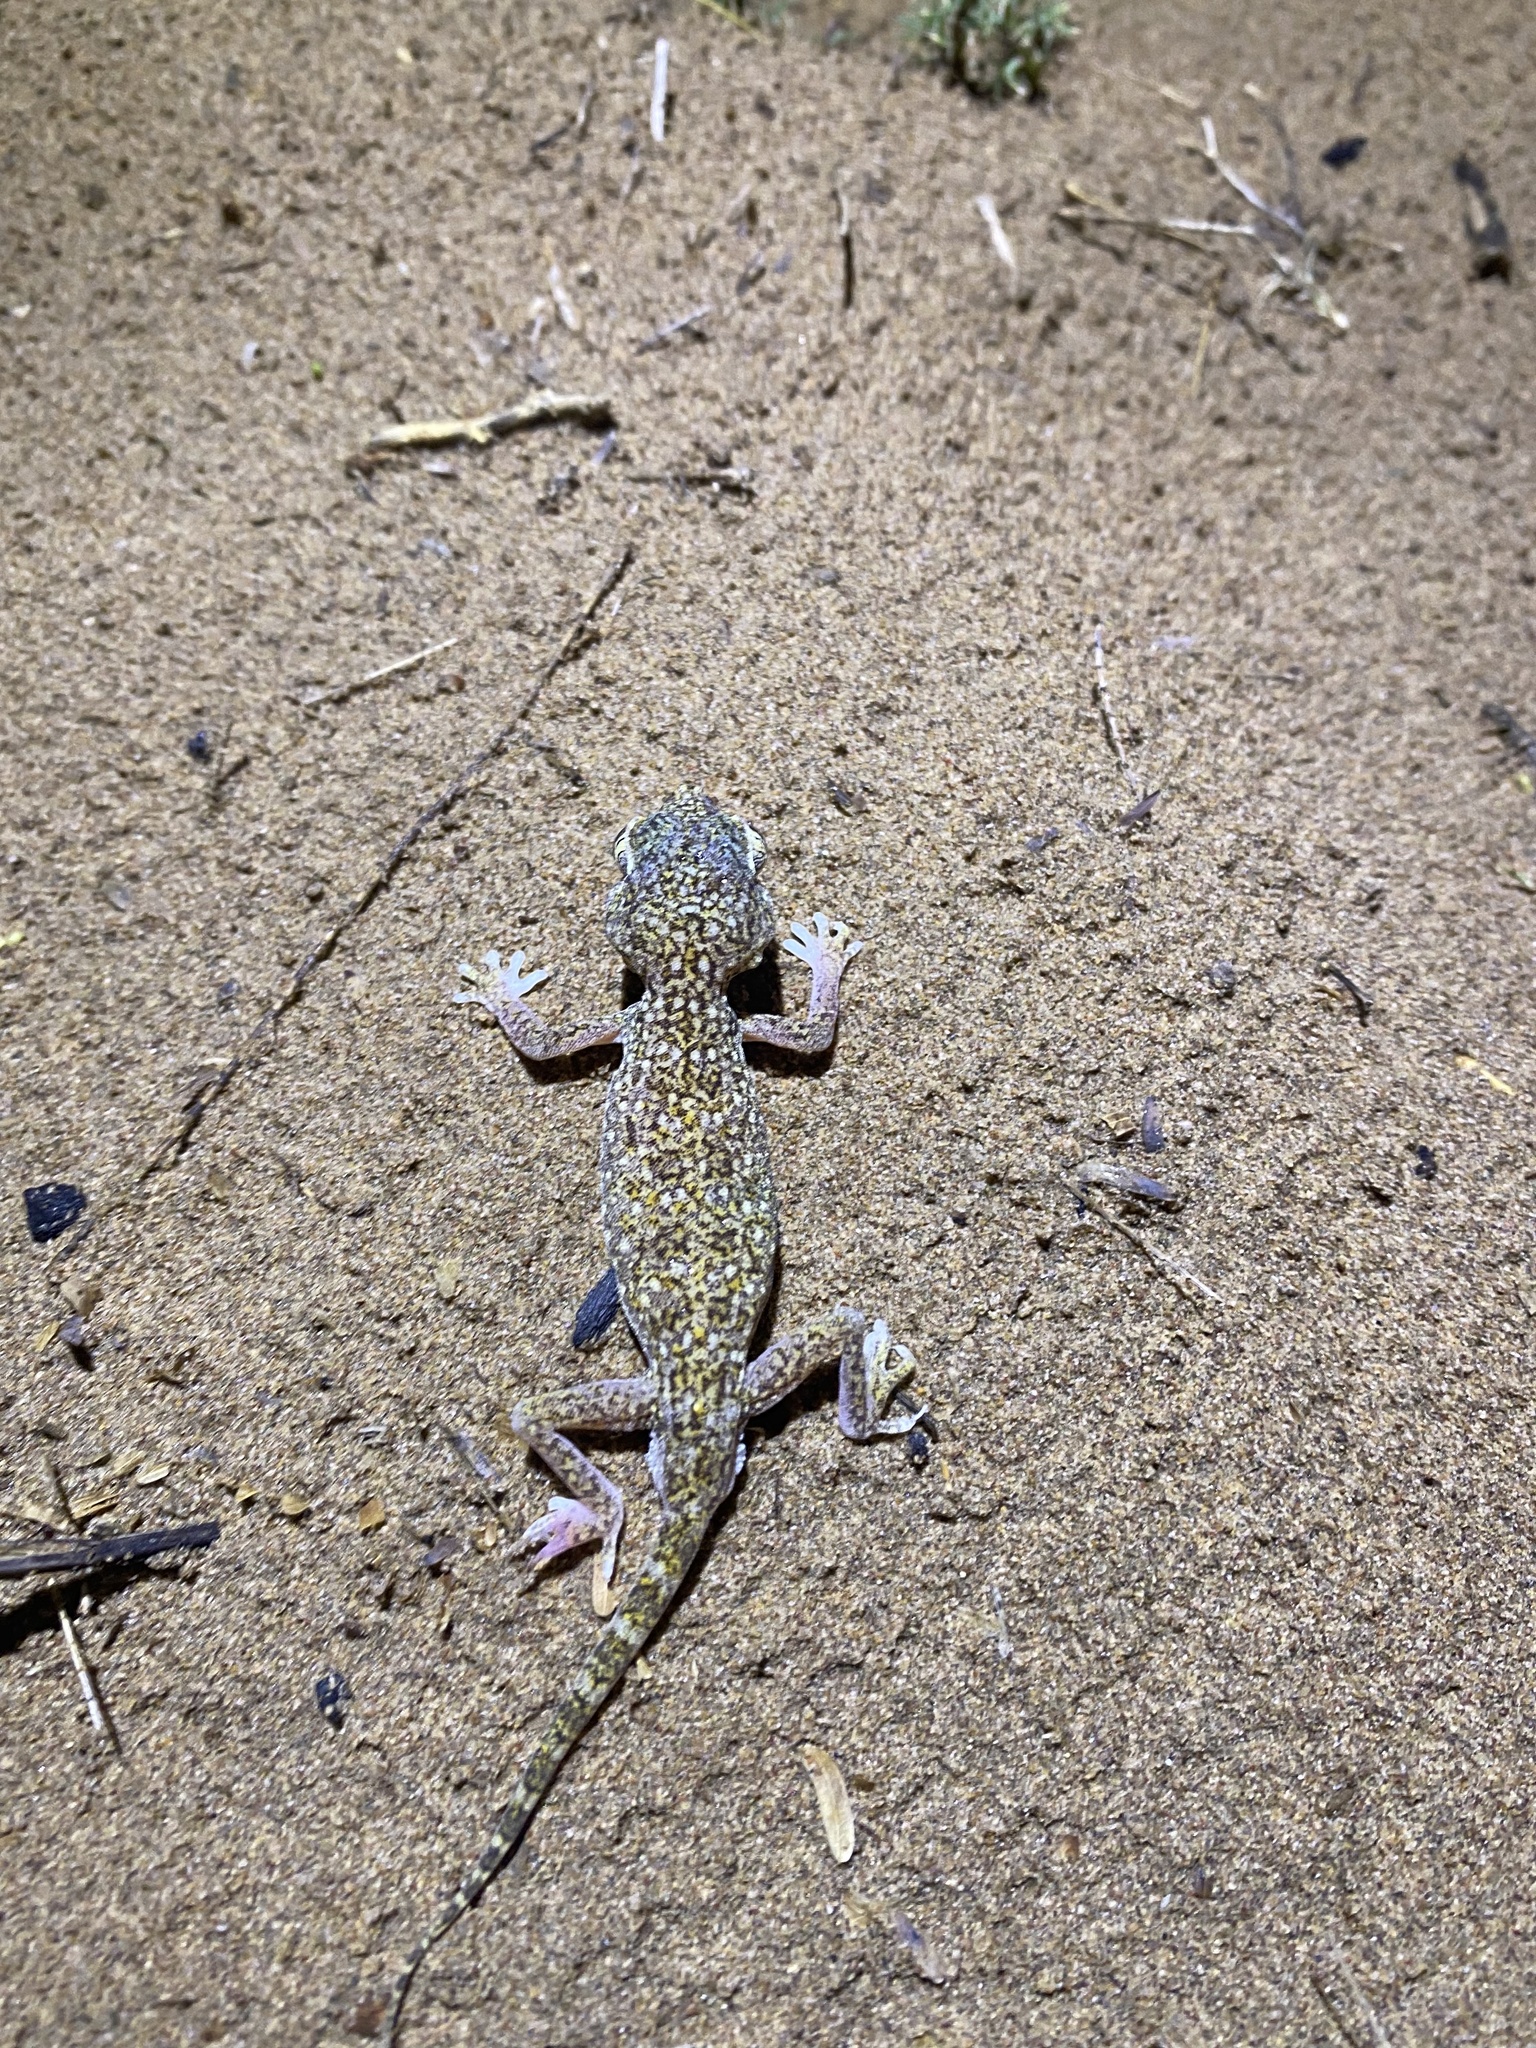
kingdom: Animalia
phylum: Chordata
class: Squamata
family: Gekkonidae
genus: Stenodactylus
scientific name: Stenodactylus doriae
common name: Dune sand gecko
